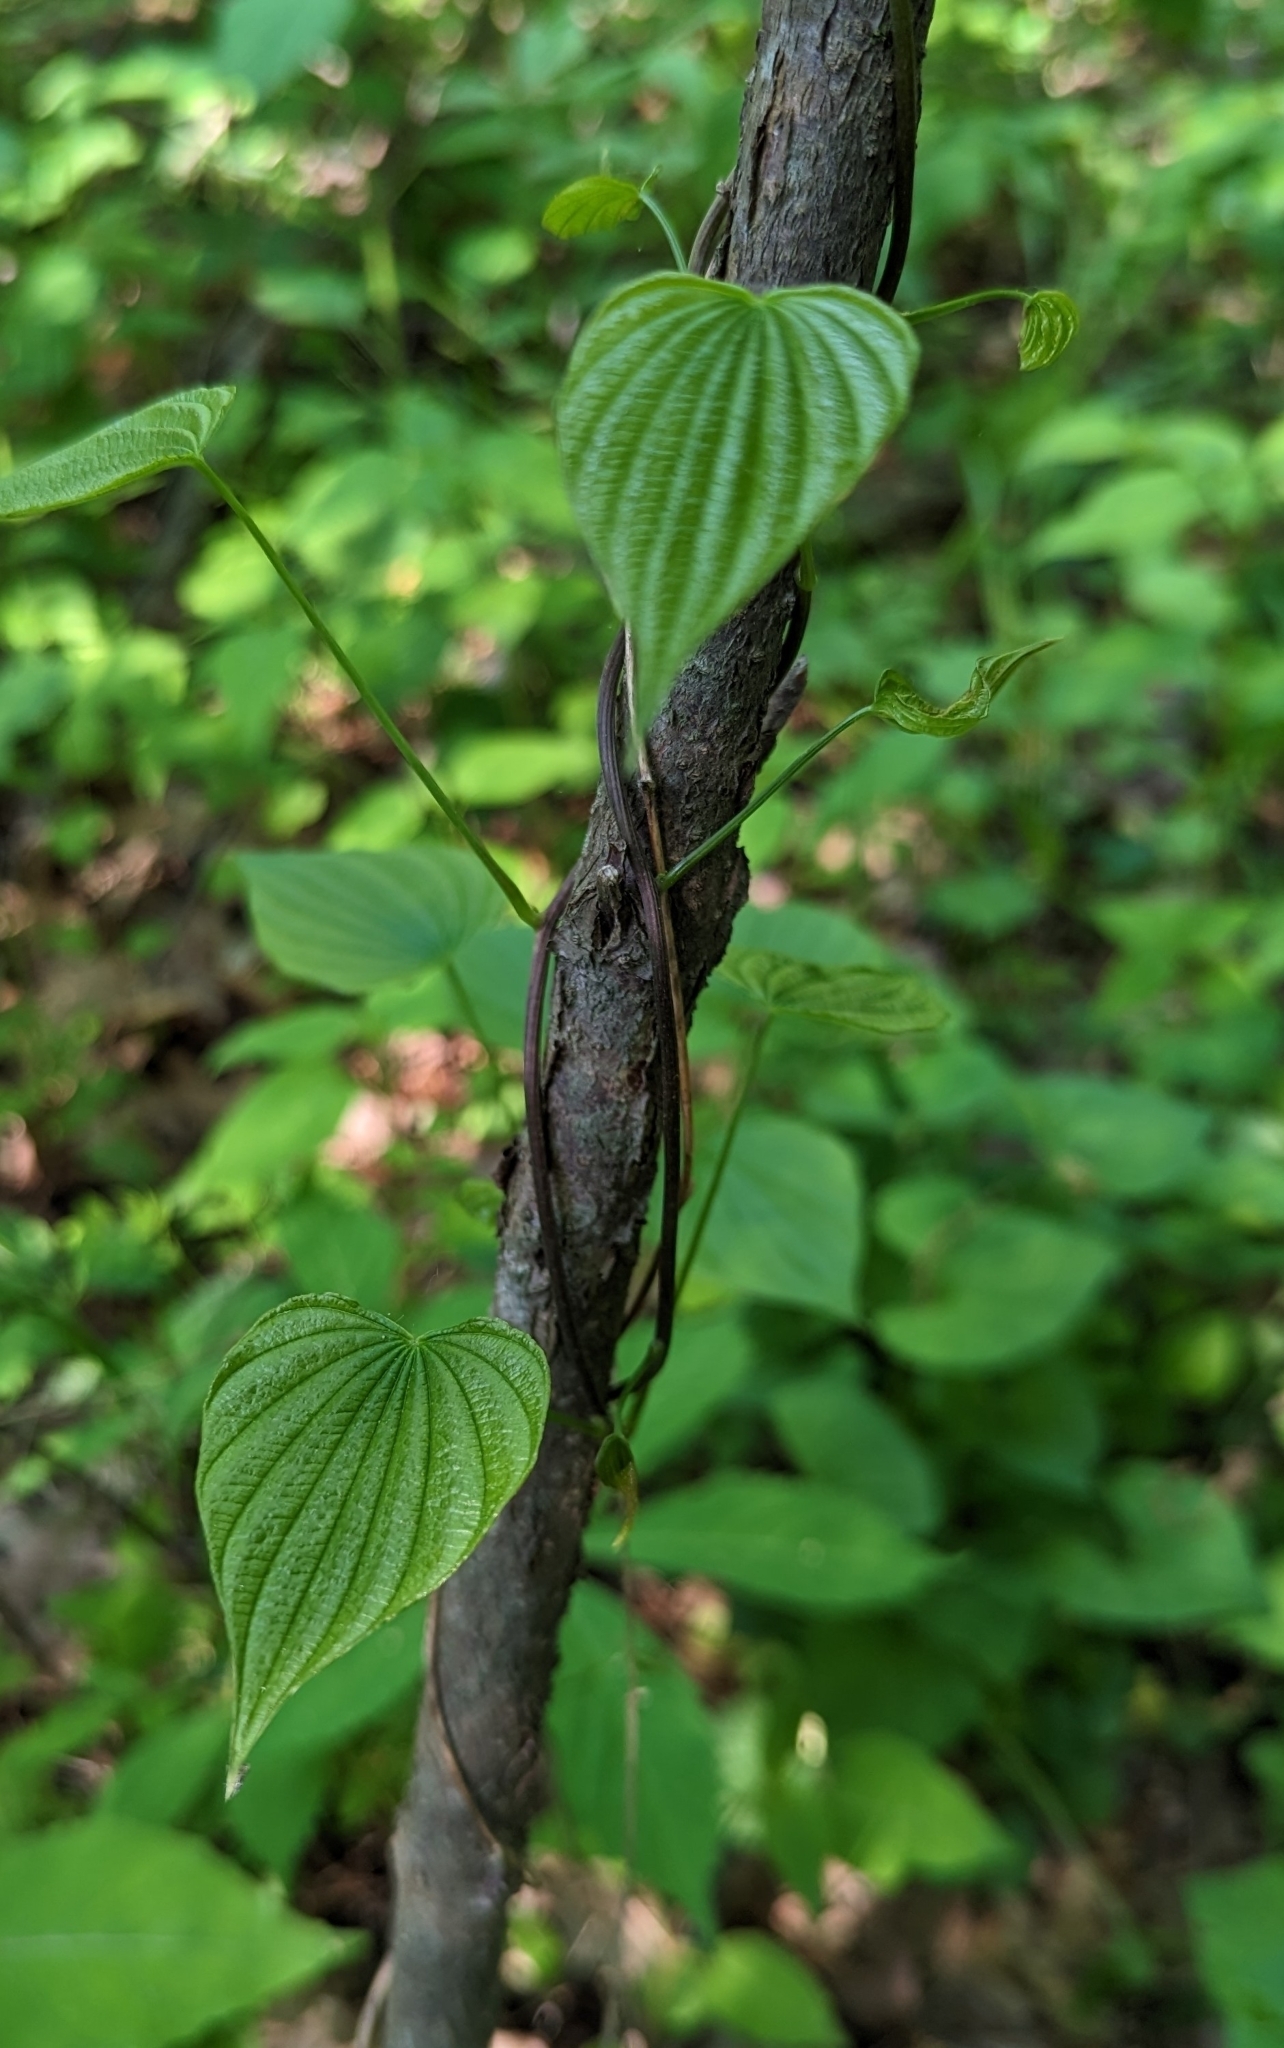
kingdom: Plantae
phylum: Tracheophyta
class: Liliopsida
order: Dioscoreales
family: Dioscoreaceae
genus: Dioscorea
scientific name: Dioscorea villosa
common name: Wild yam
